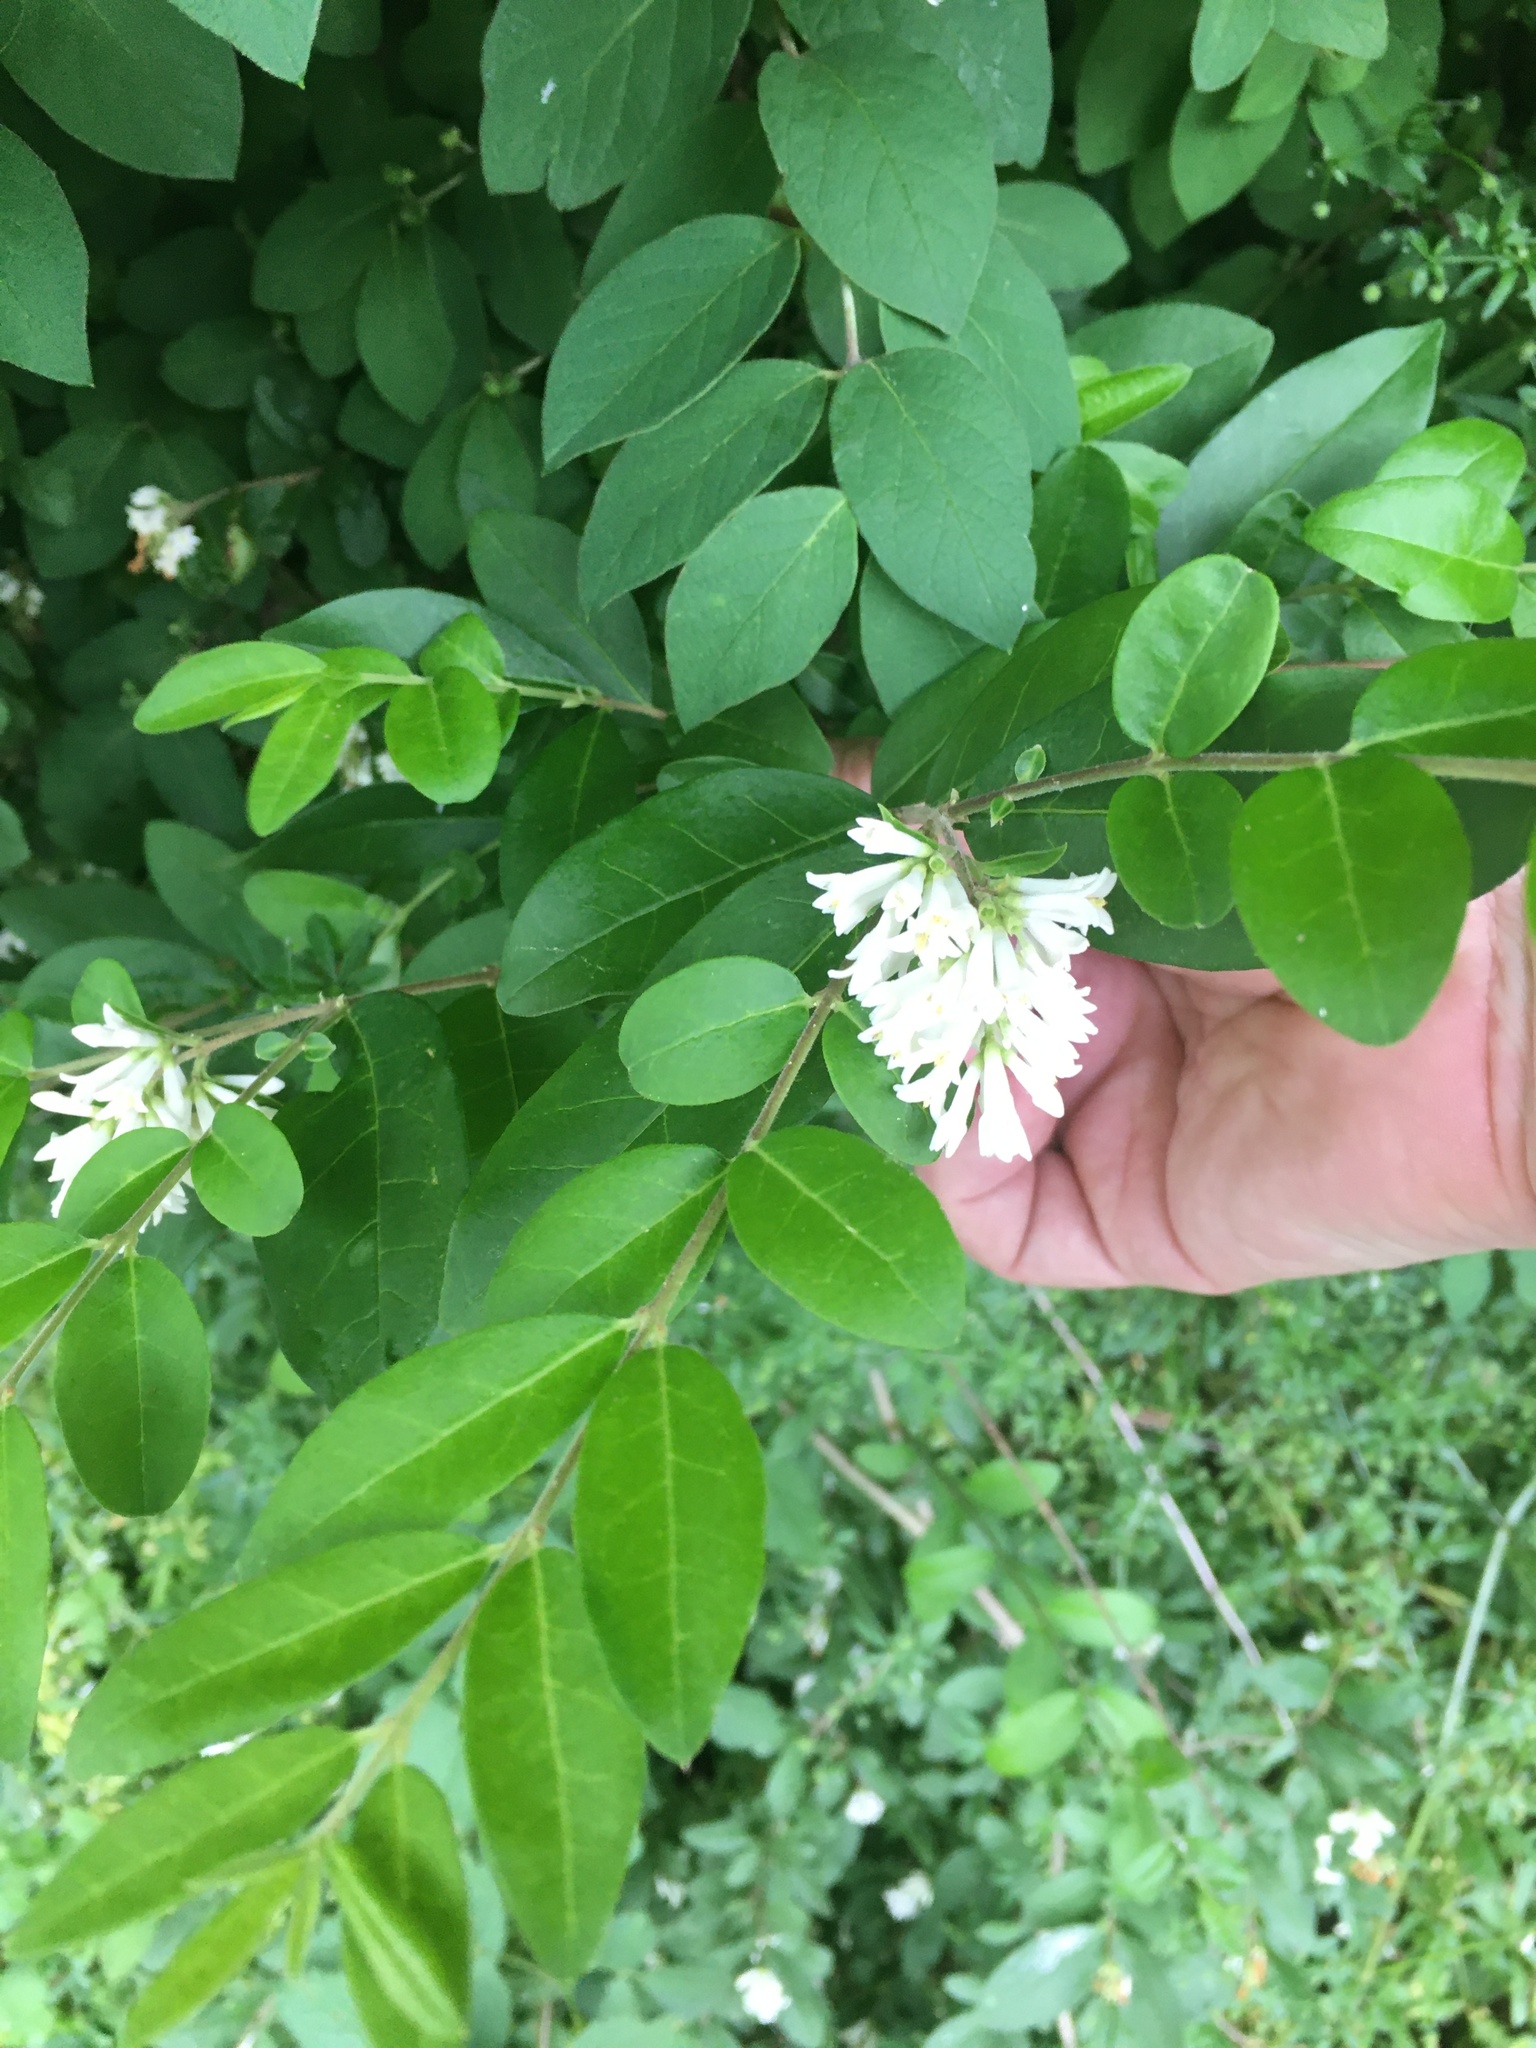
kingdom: Plantae
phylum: Tracheophyta
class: Magnoliopsida
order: Lamiales
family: Oleaceae
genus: Ligustrum
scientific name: Ligustrum obtusifolium
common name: Border privet
